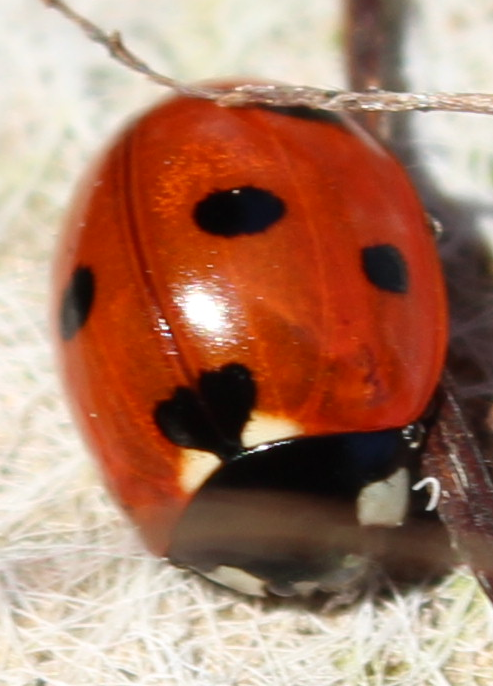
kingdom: Animalia
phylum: Arthropoda
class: Insecta
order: Coleoptera
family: Coccinellidae
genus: Coccinella
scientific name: Coccinella septempunctata
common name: Sevenspotted lady beetle
